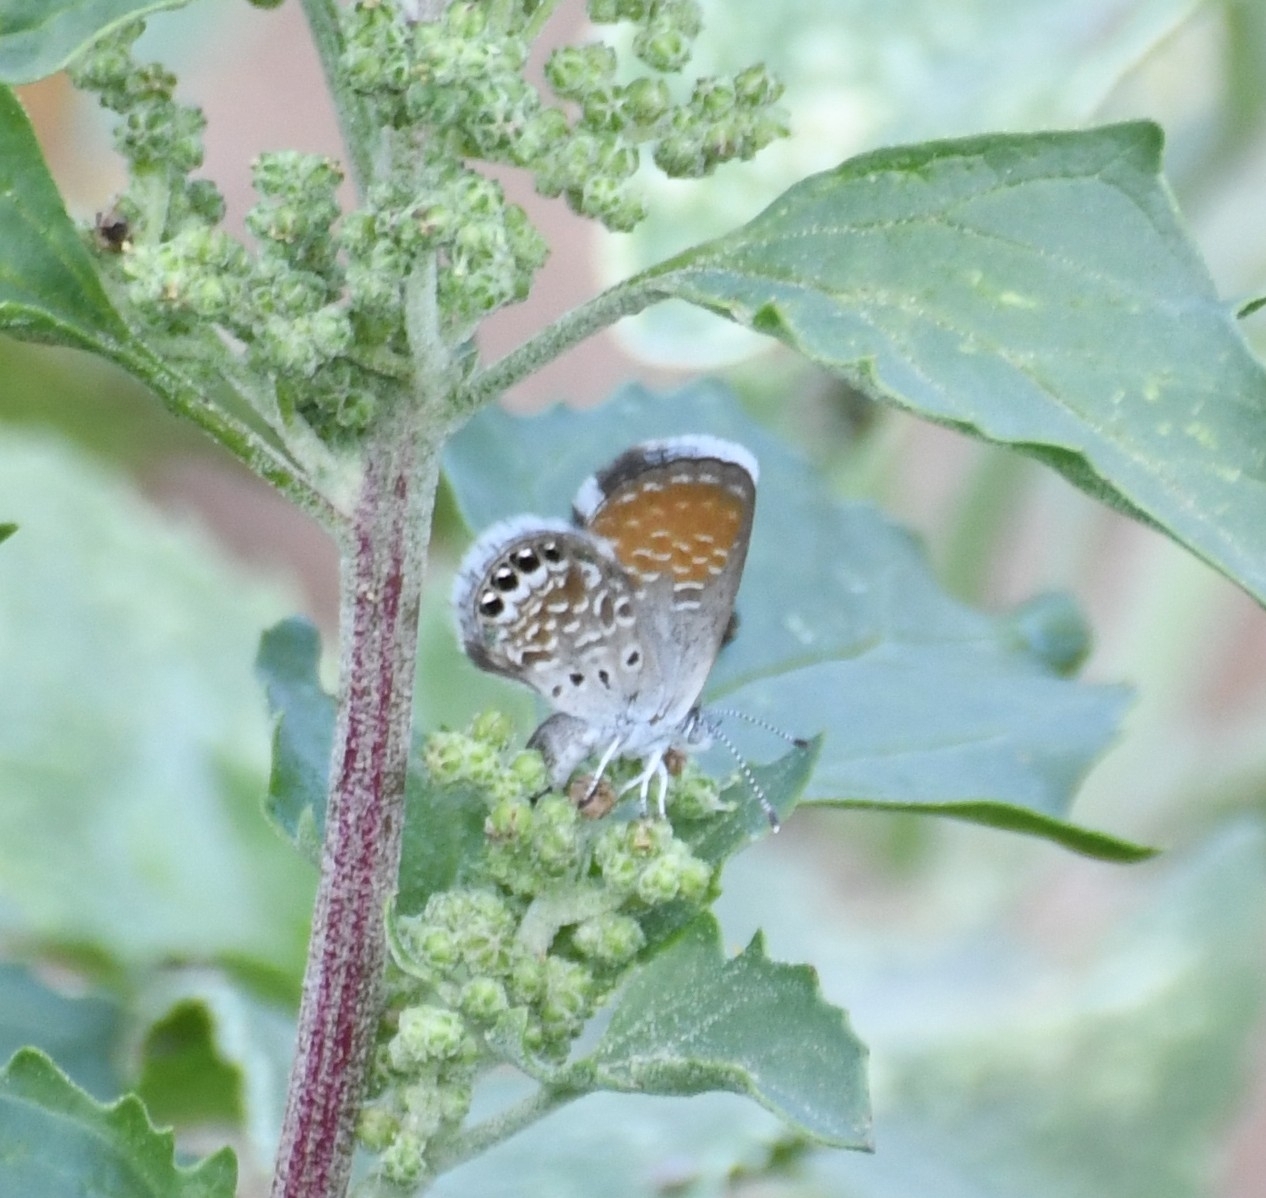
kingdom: Animalia
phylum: Arthropoda
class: Insecta
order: Lepidoptera
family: Lycaenidae
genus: Brephidium
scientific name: Brephidium exilis
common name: Pygmy blue
